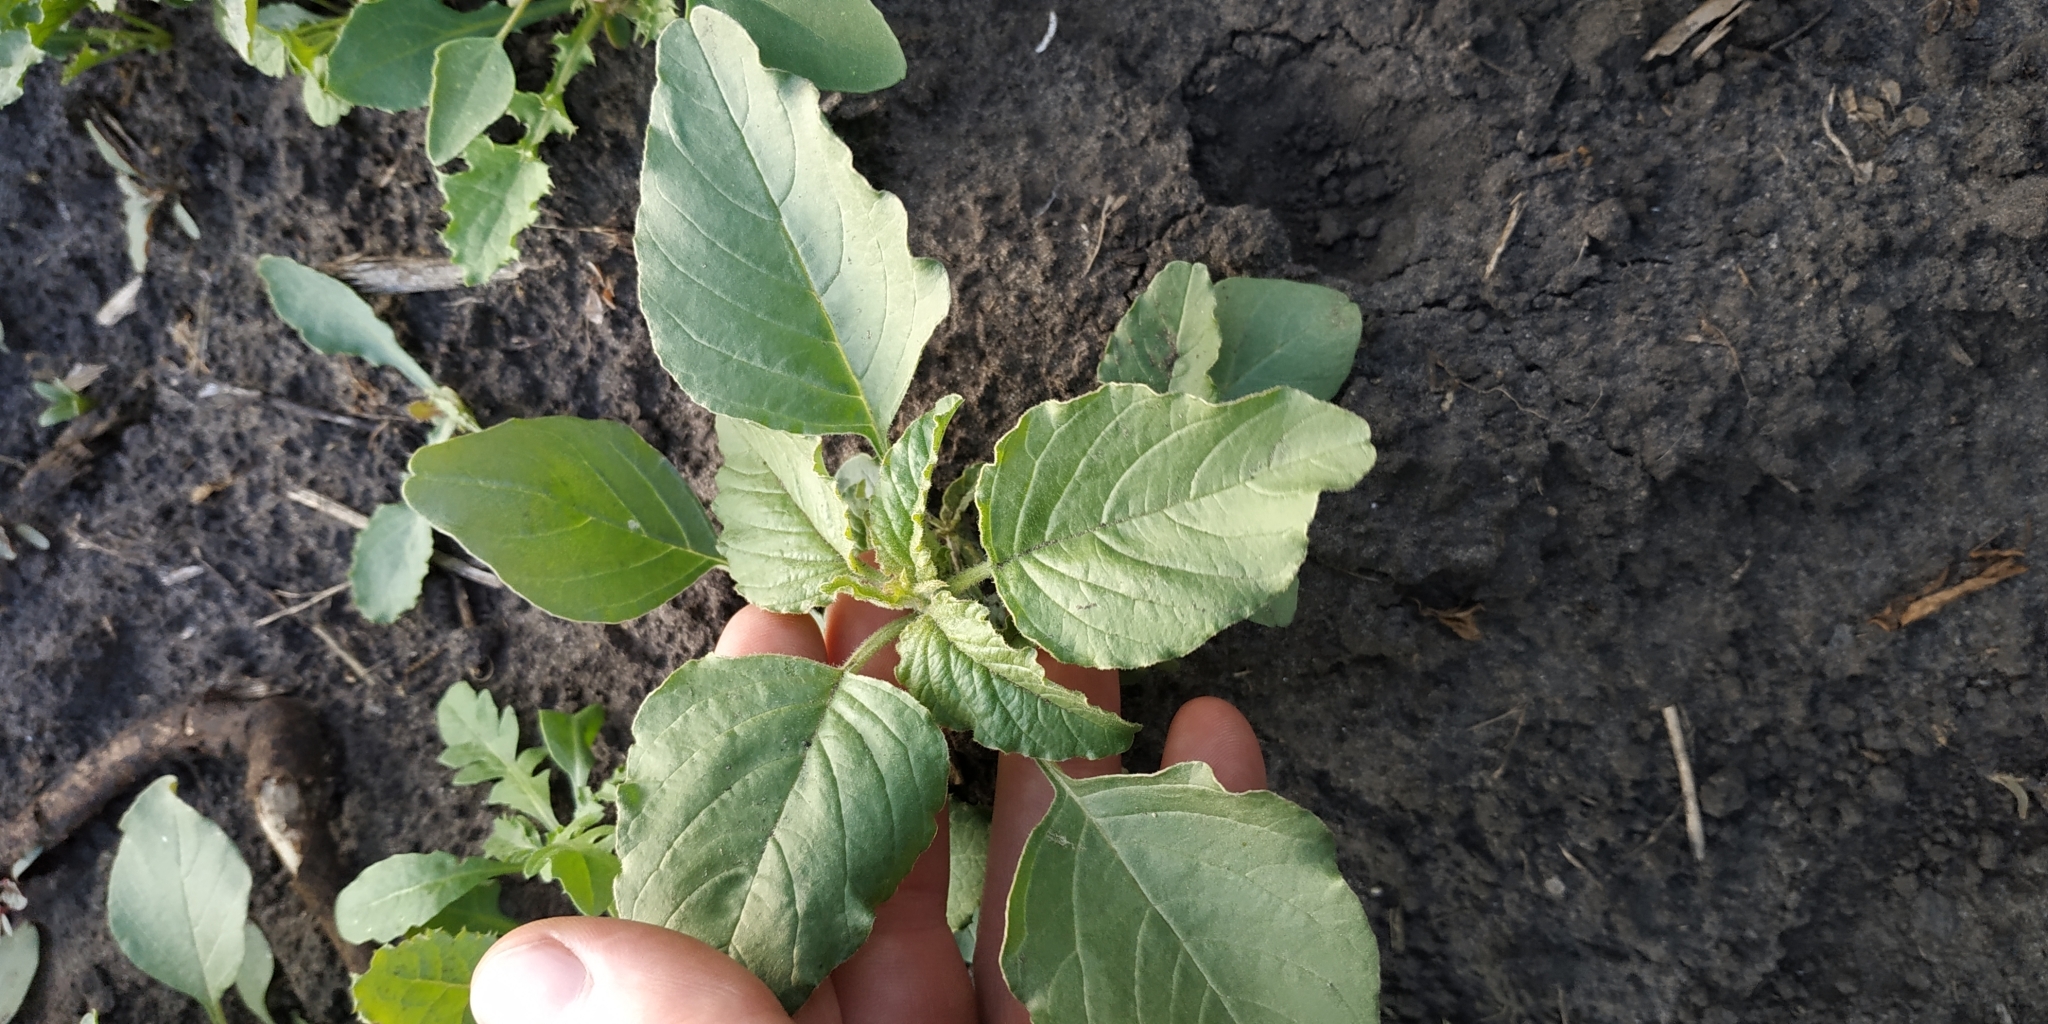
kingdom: Plantae
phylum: Tracheophyta
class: Magnoliopsida
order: Caryophyllales
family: Amaranthaceae
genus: Amaranthus
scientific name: Amaranthus retroflexus
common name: Redroot amaranth
